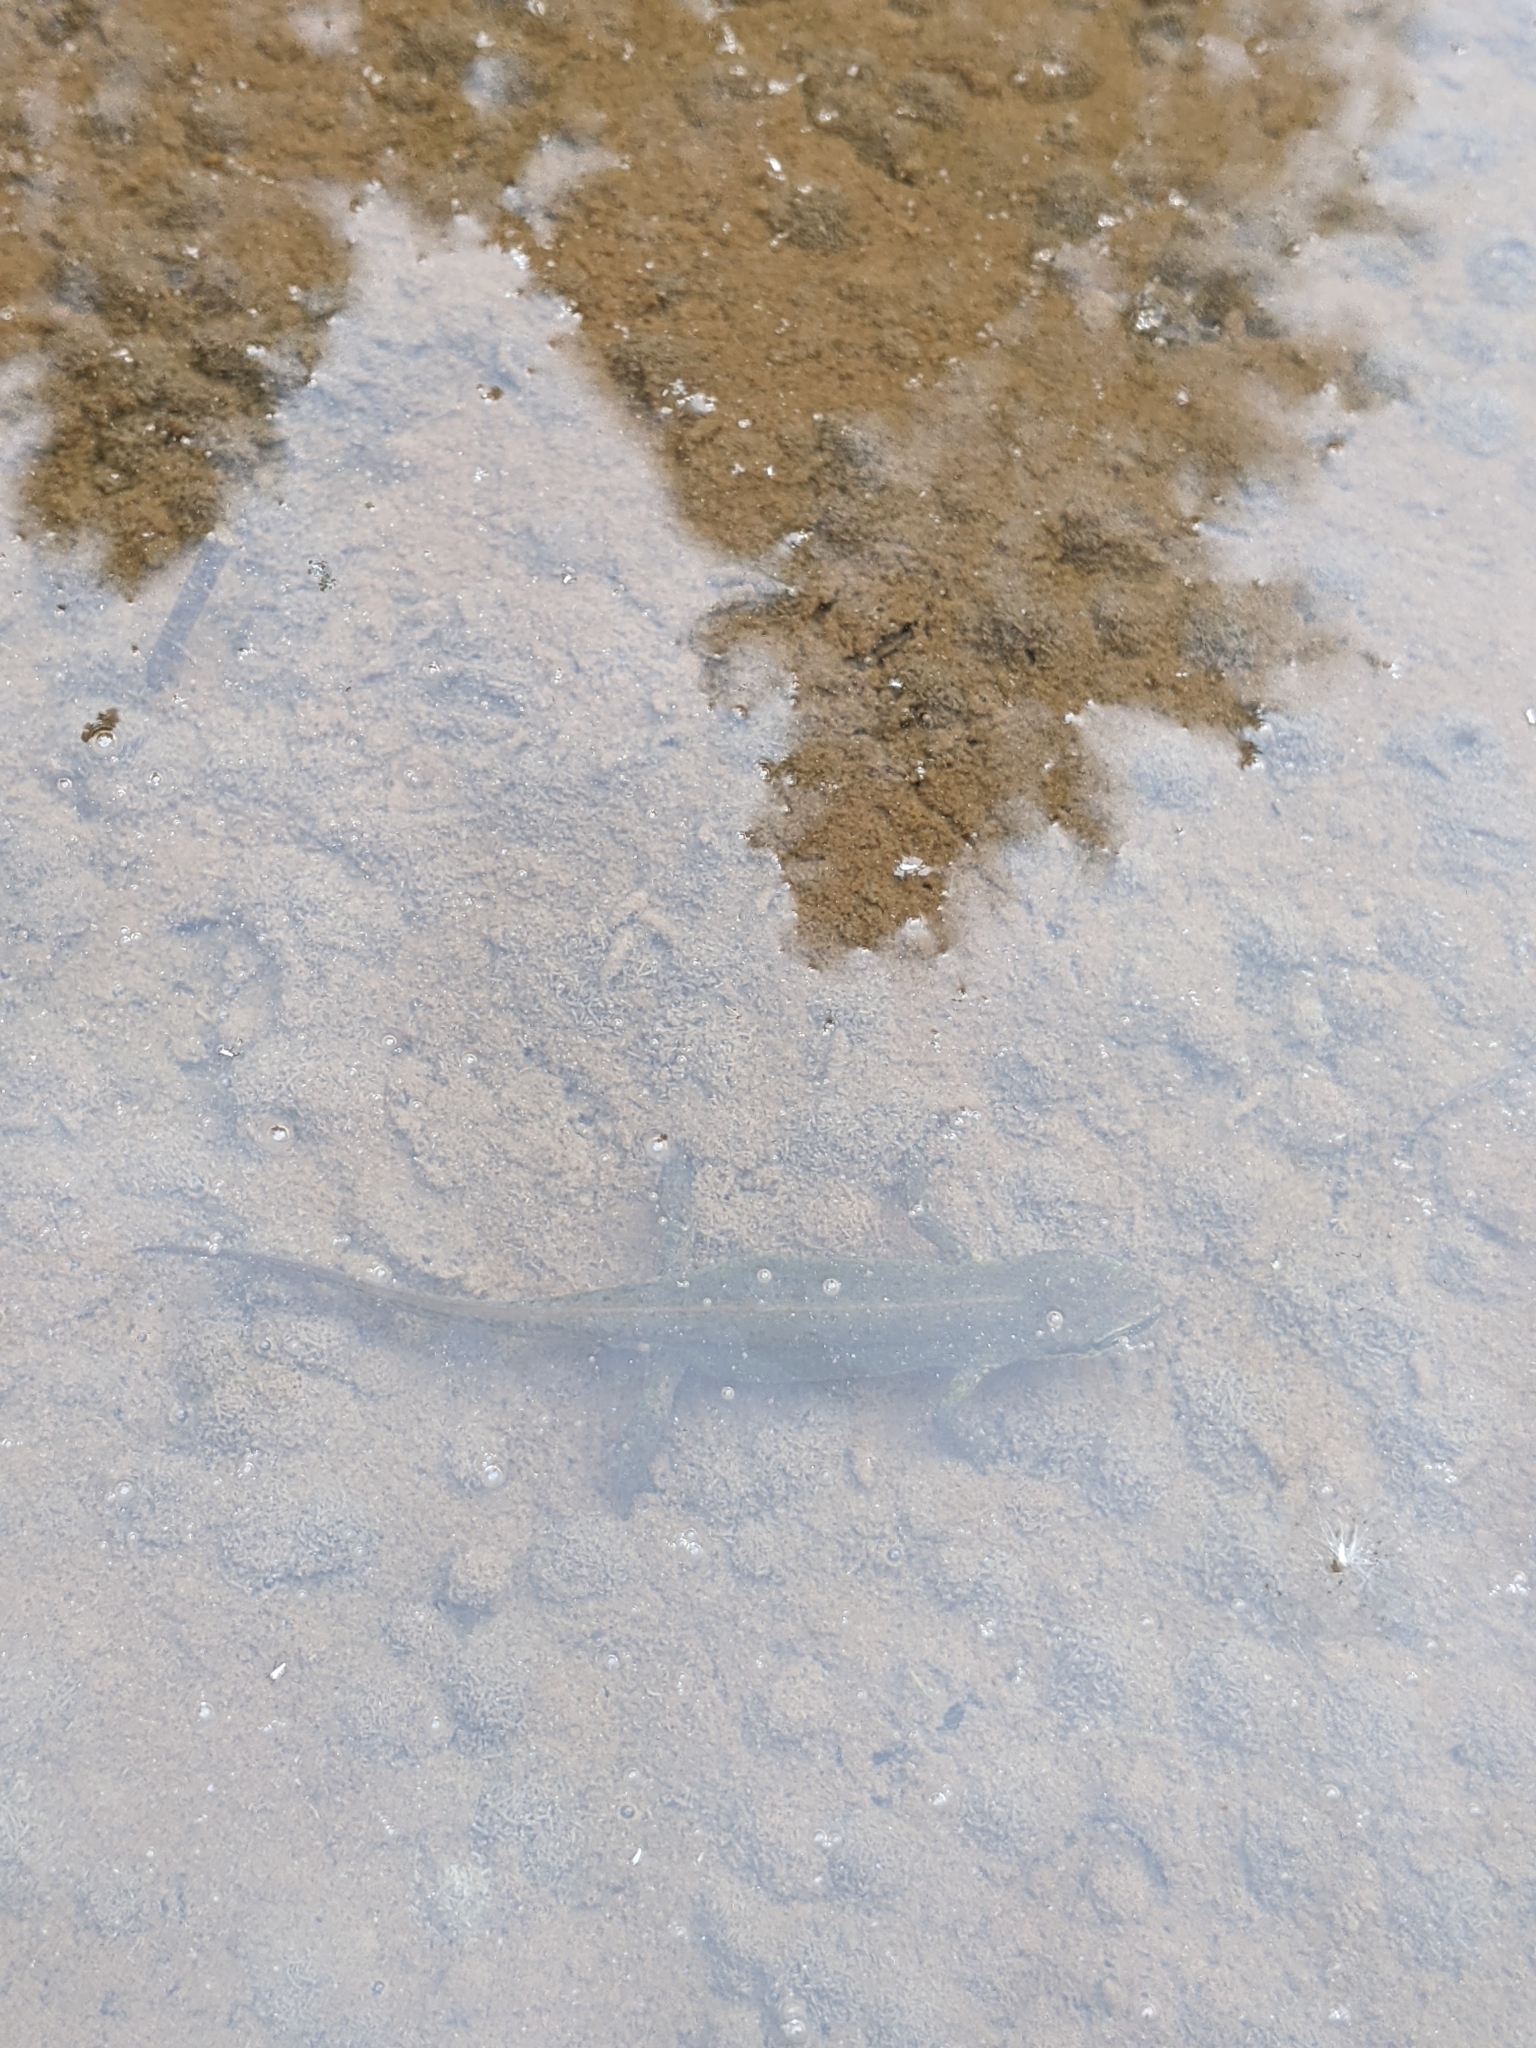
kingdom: Animalia
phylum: Chordata
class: Amphibia
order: Caudata
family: Salamandridae
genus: Lissotriton
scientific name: Lissotriton helveticus
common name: Palmate newt
